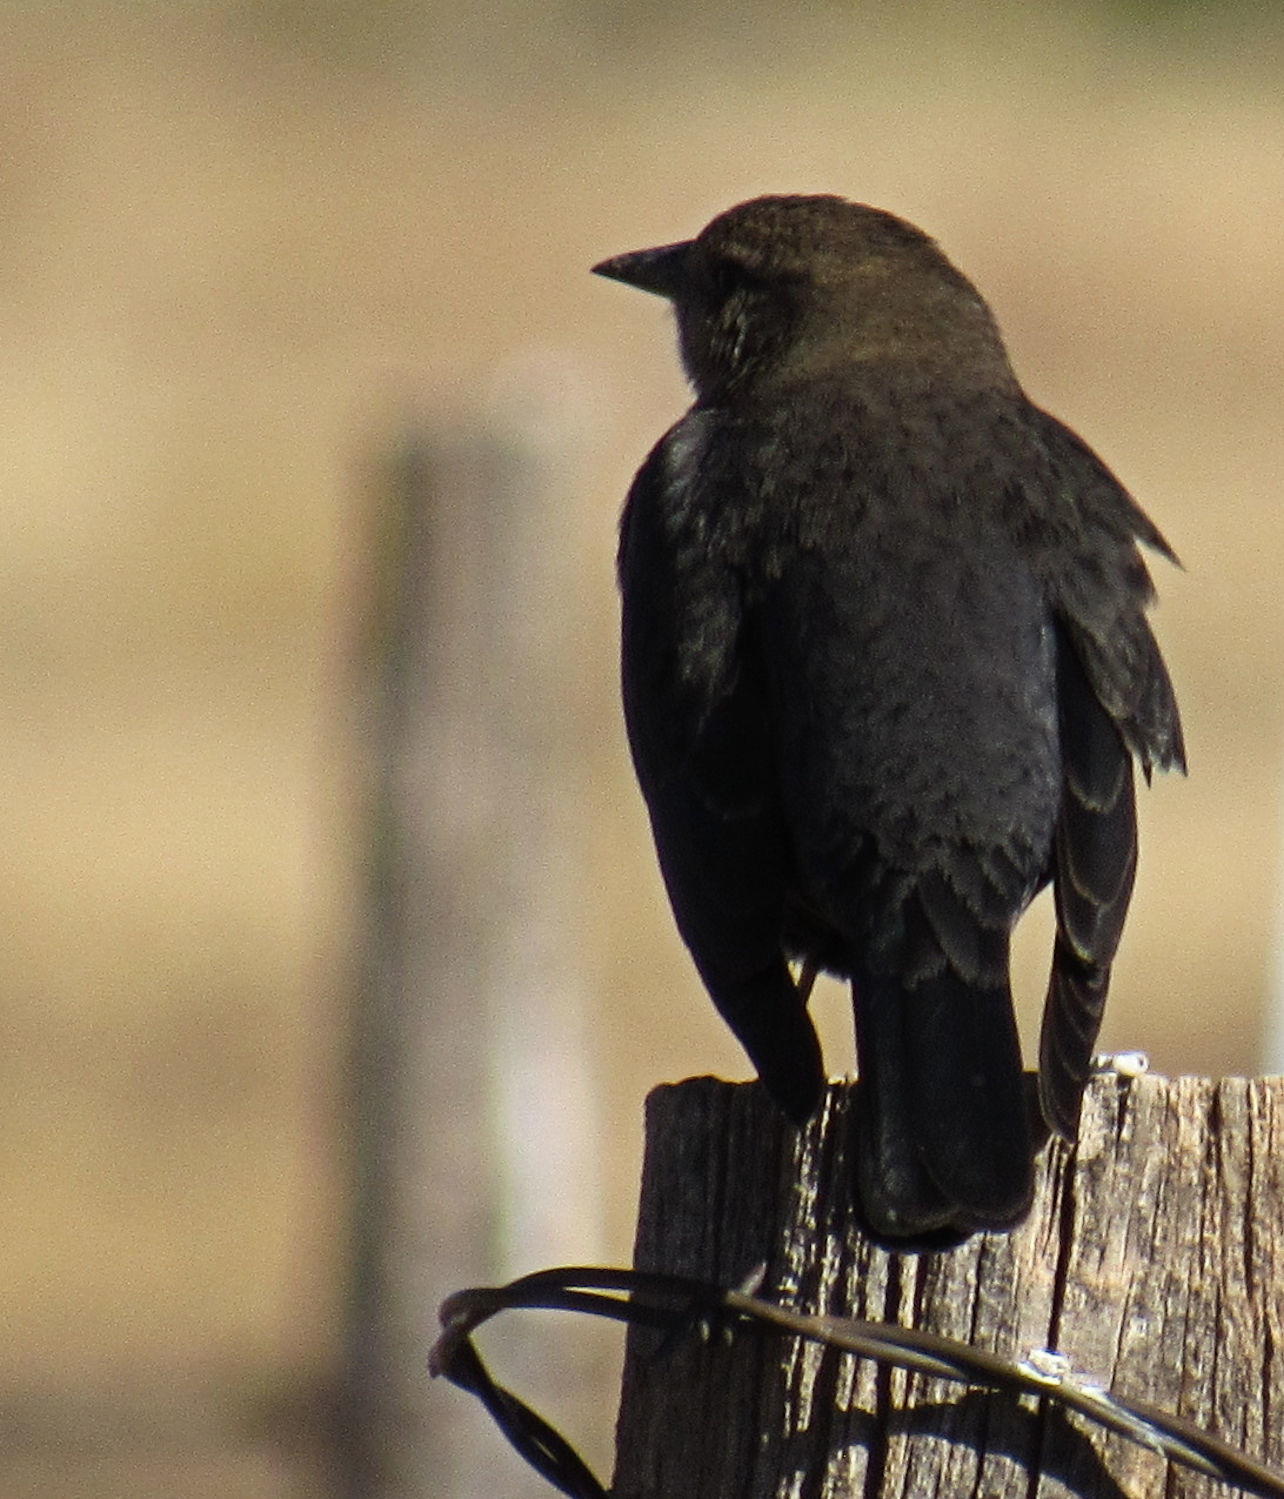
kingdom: Animalia
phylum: Chordata
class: Aves
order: Passeriformes
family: Icteridae
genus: Euphagus
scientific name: Euphagus cyanocephalus
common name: Brewer's blackbird
